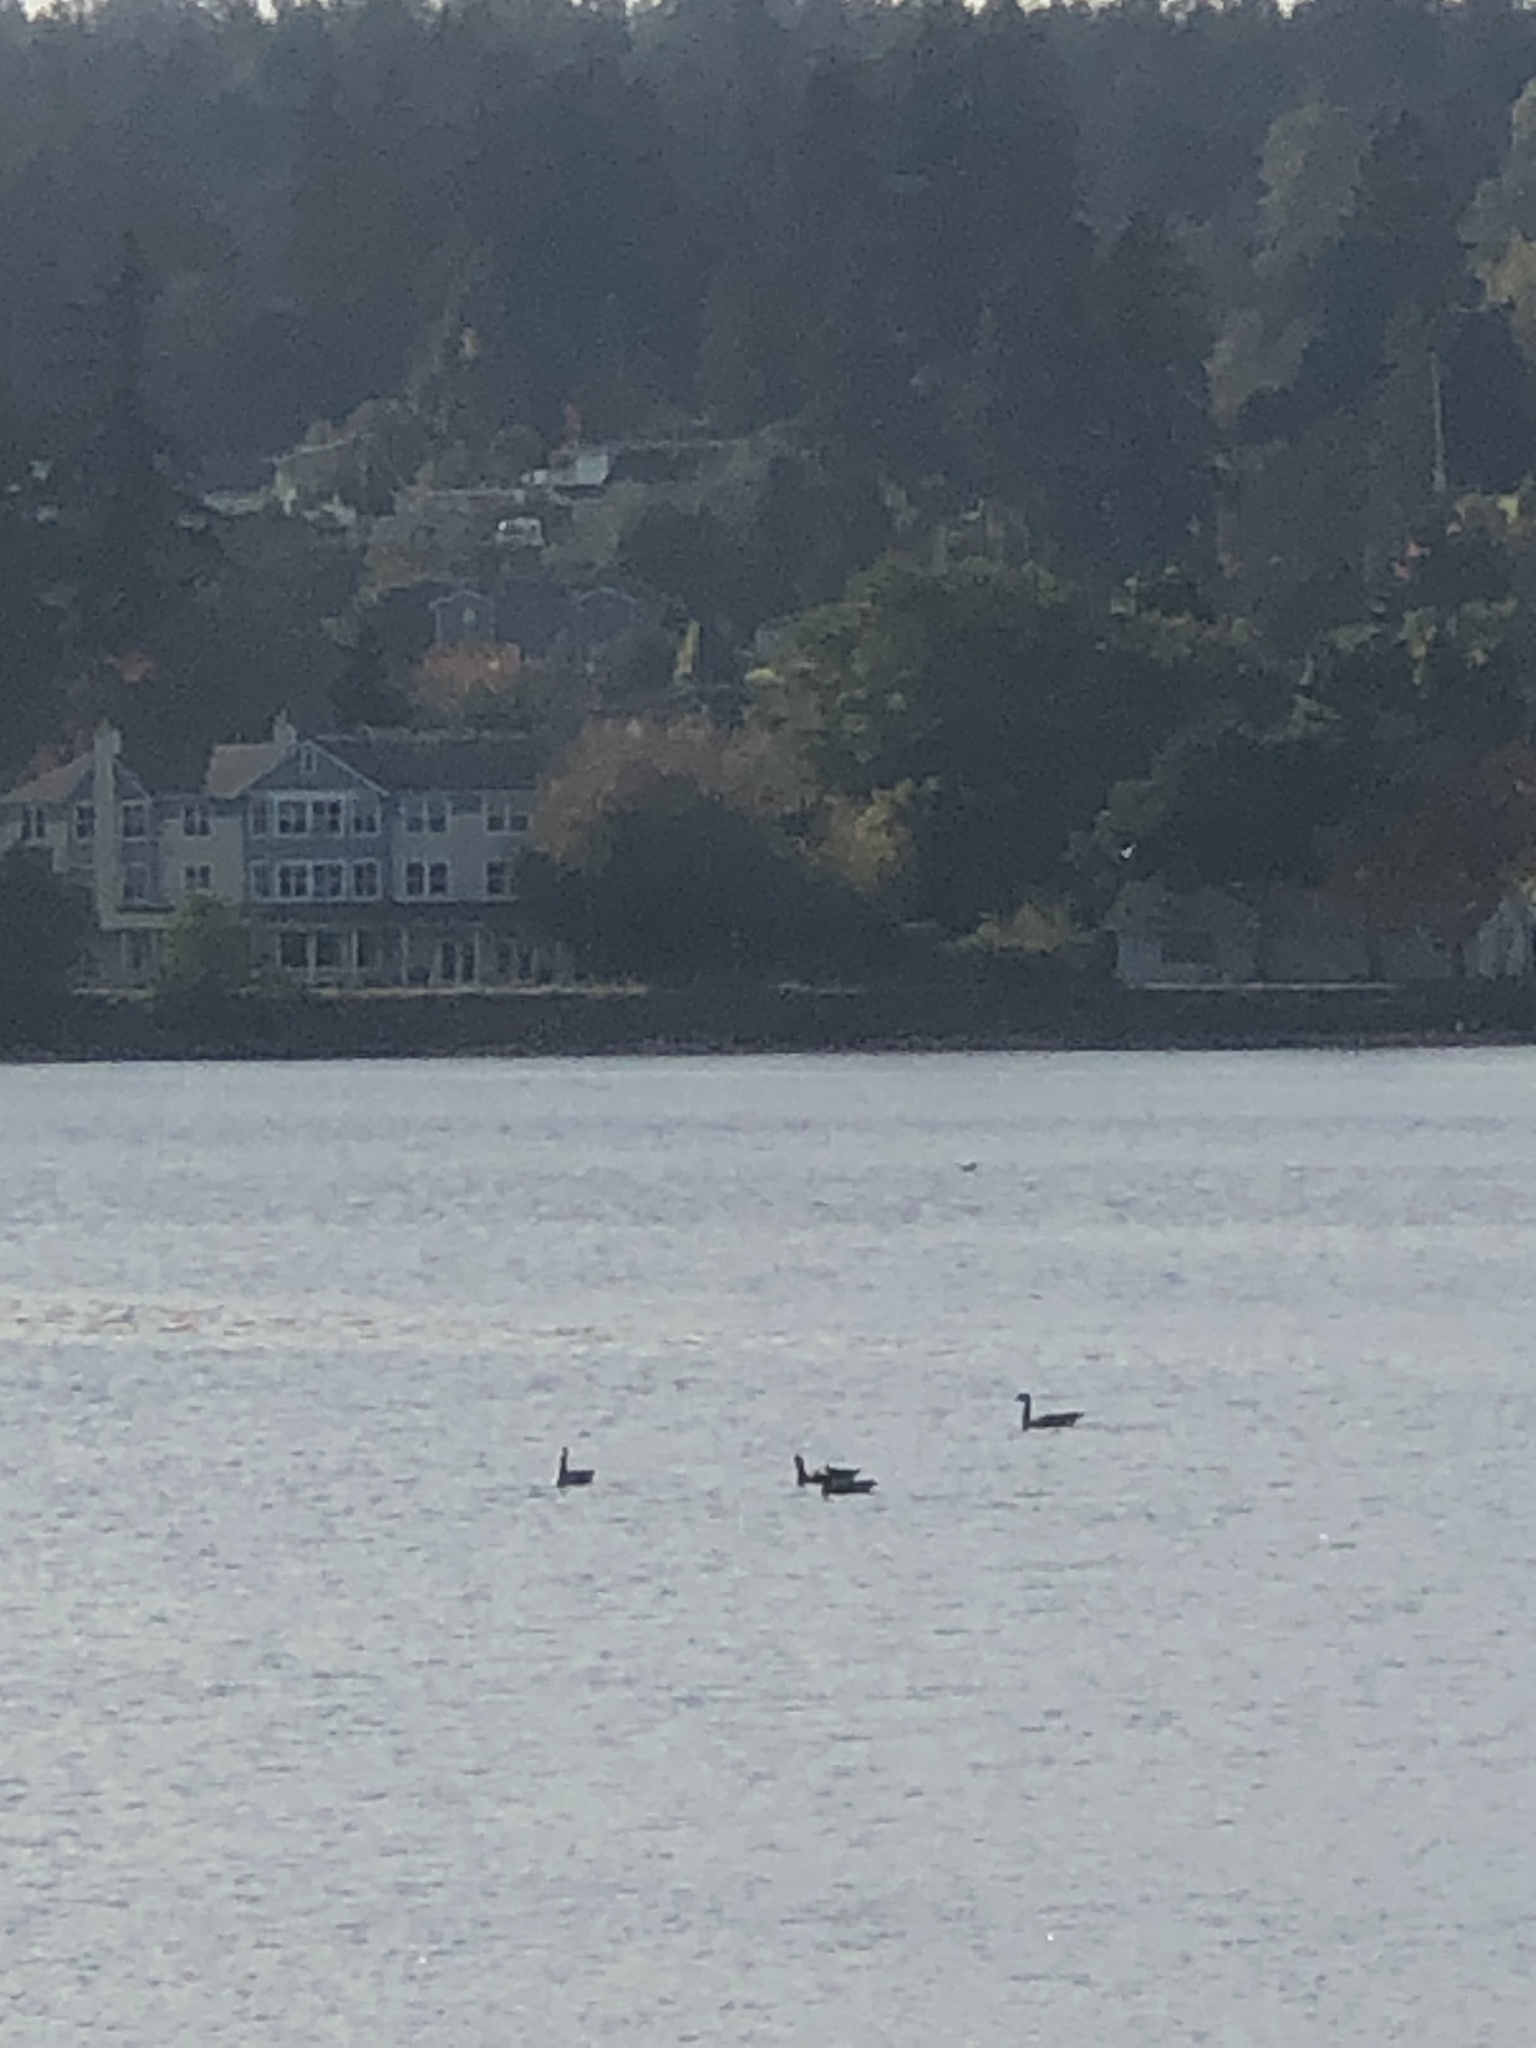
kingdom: Animalia
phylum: Chordata
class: Aves
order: Anseriformes
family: Anatidae
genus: Branta
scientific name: Branta canadensis
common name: Canada goose
